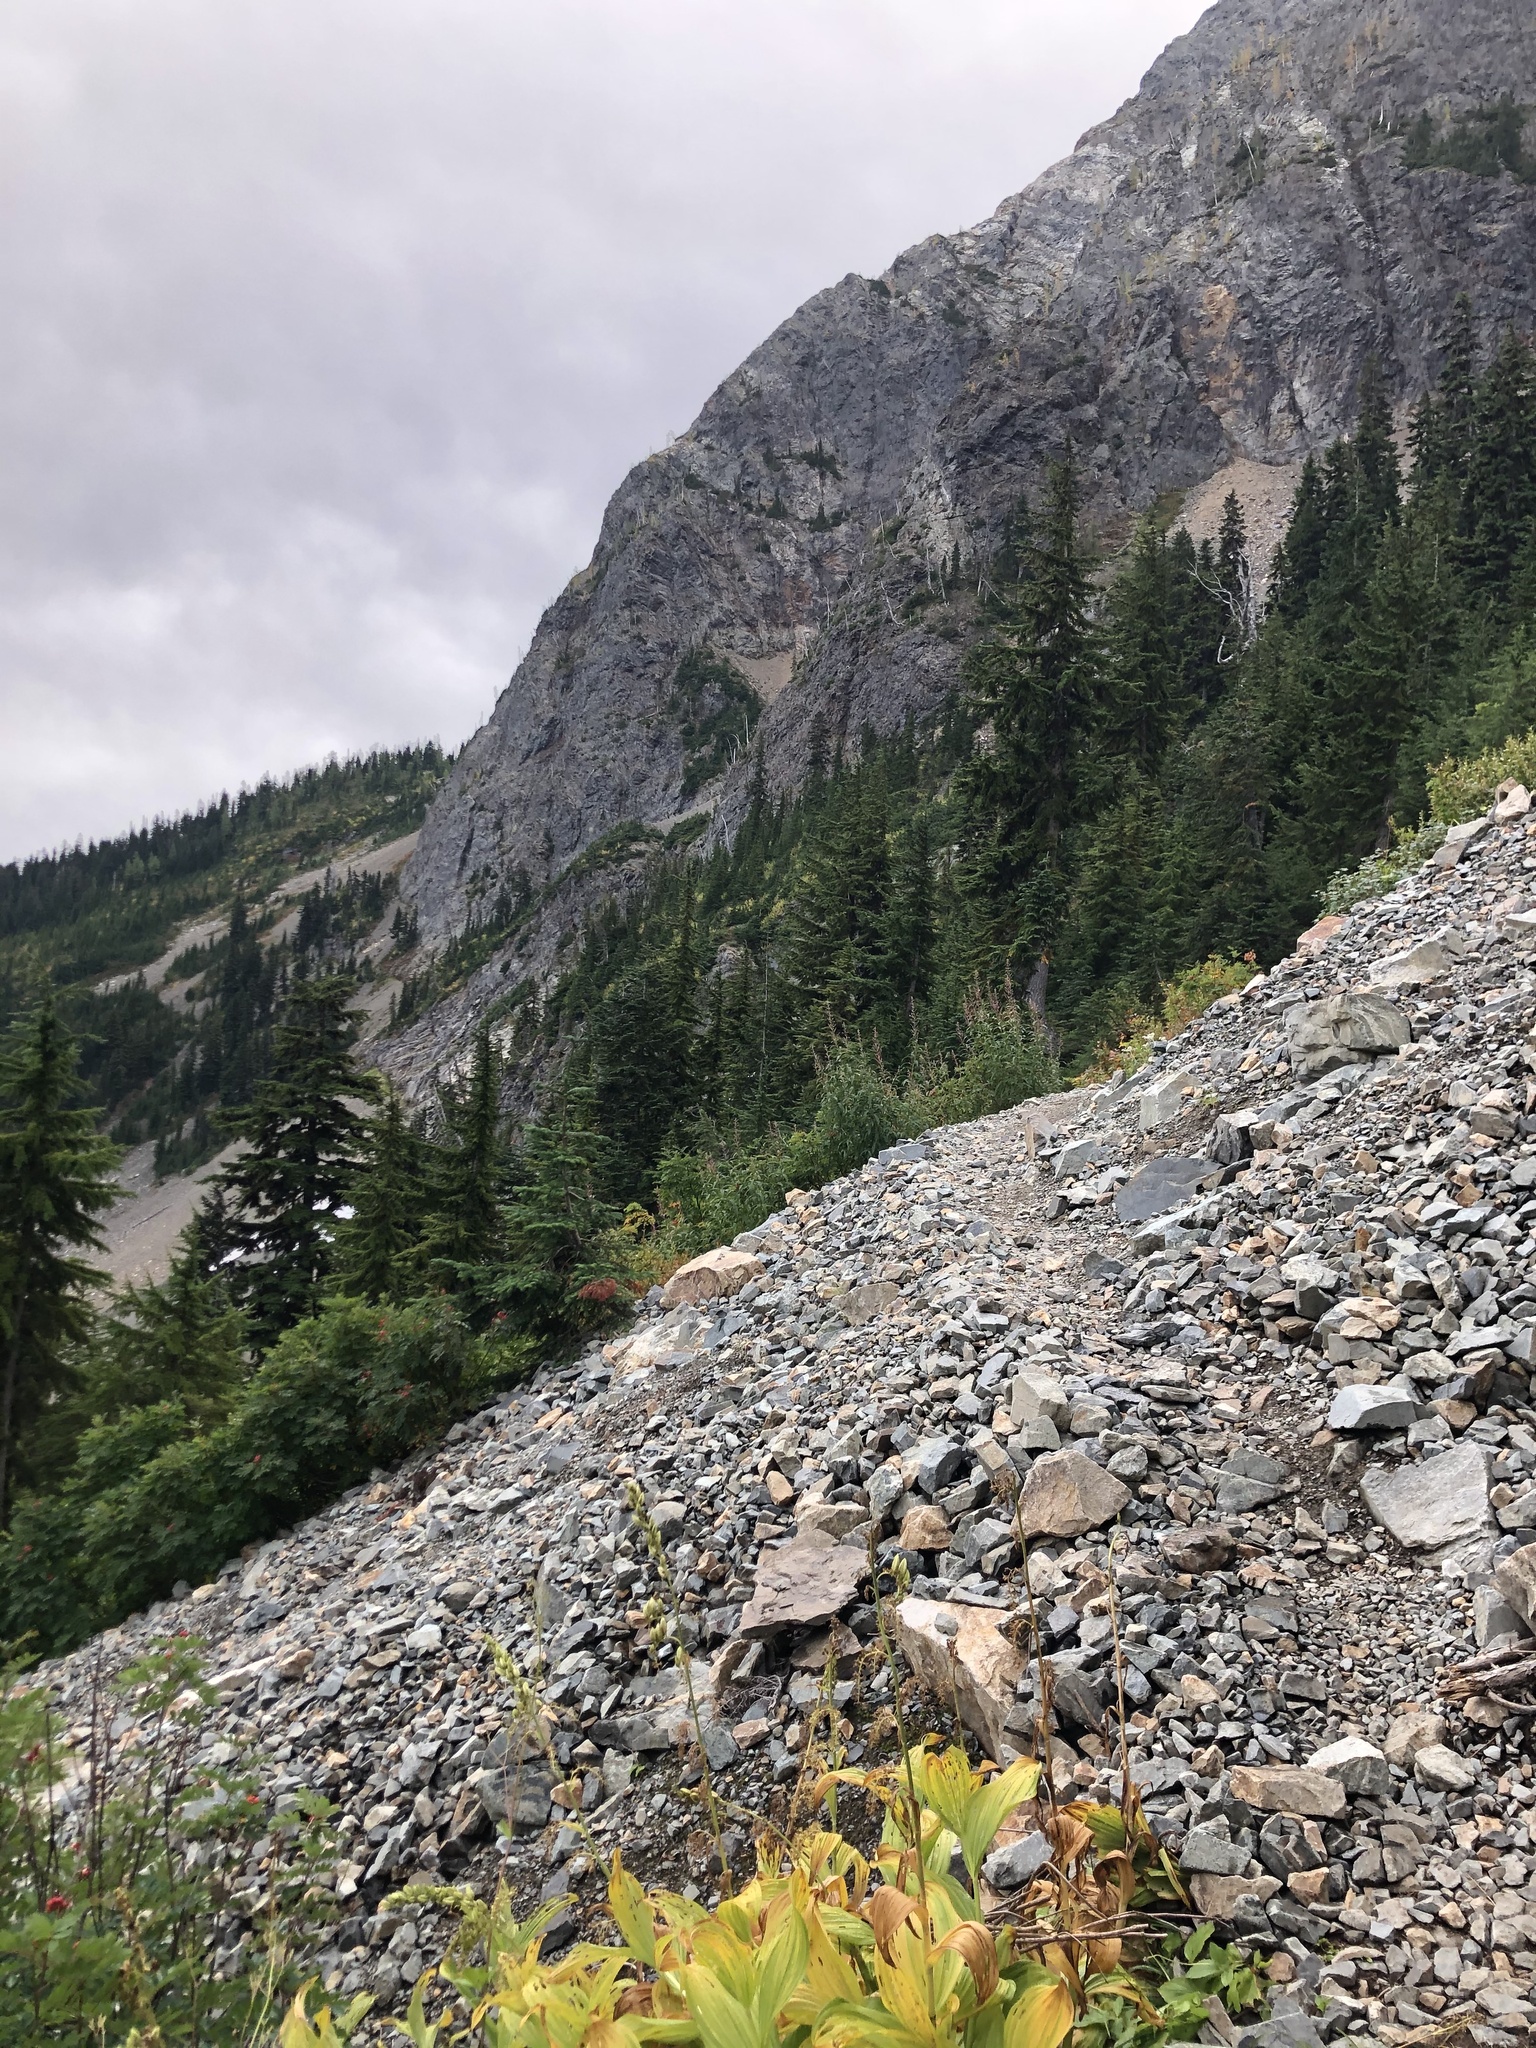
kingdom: Plantae
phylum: Tracheophyta
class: Liliopsida
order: Liliales
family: Melanthiaceae
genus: Veratrum
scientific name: Veratrum viride
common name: American false hellebore
